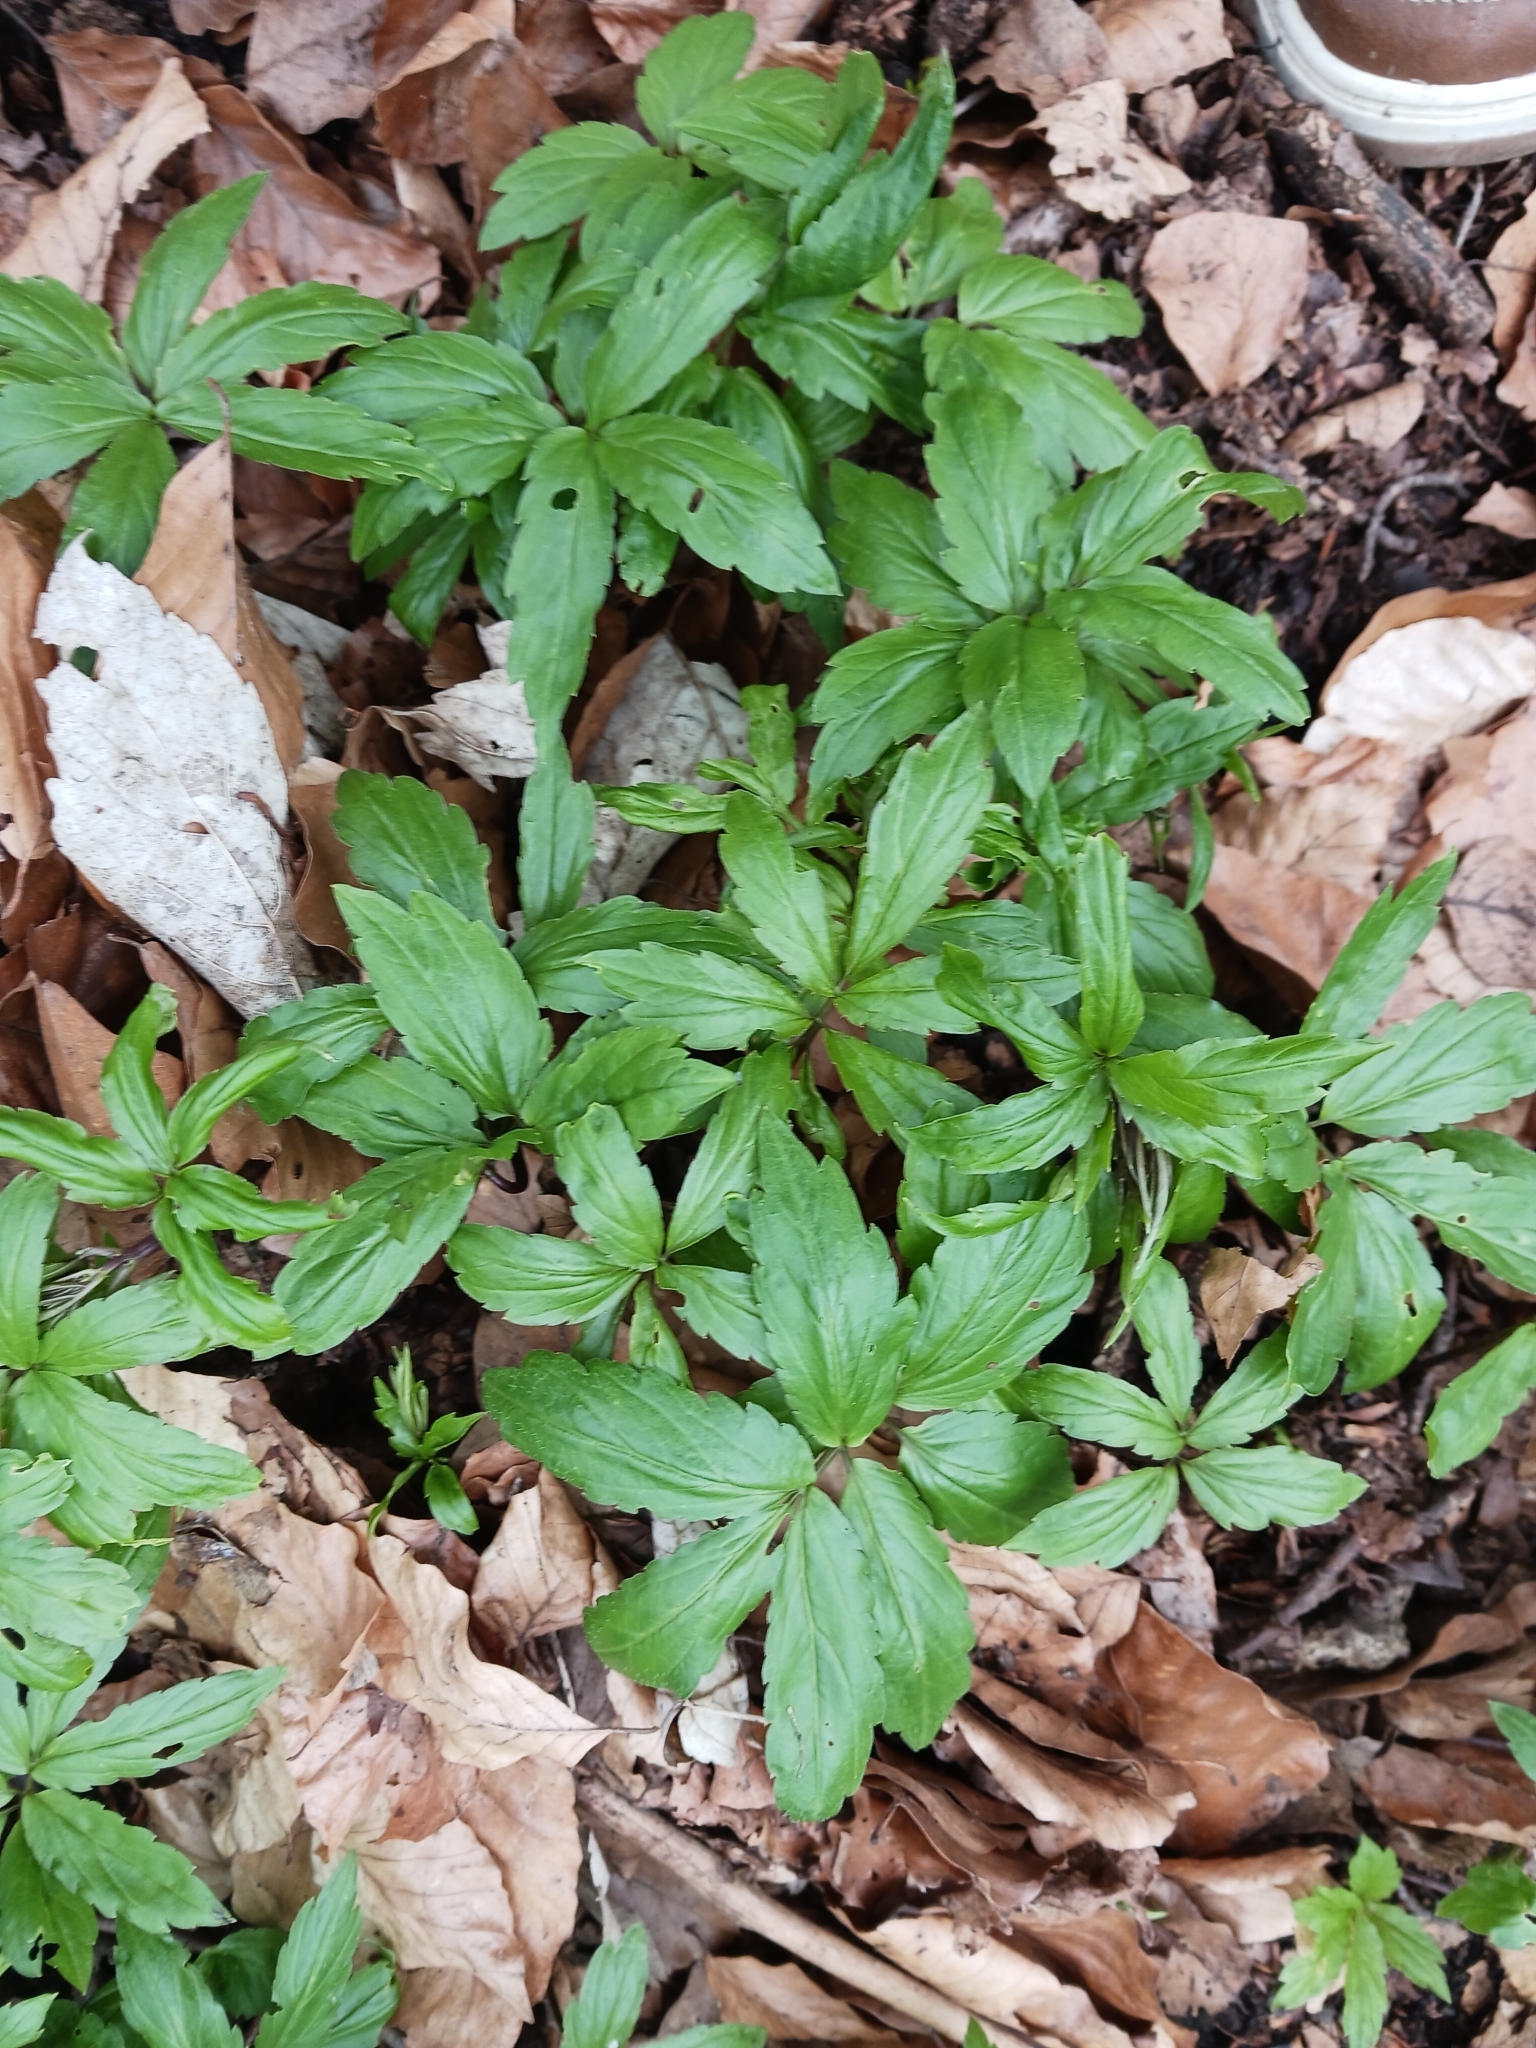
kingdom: Plantae
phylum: Tracheophyta
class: Magnoliopsida
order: Brassicales
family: Brassicaceae
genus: Cardamine
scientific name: Cardamine bulbifera
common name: Coralroot bittercress
